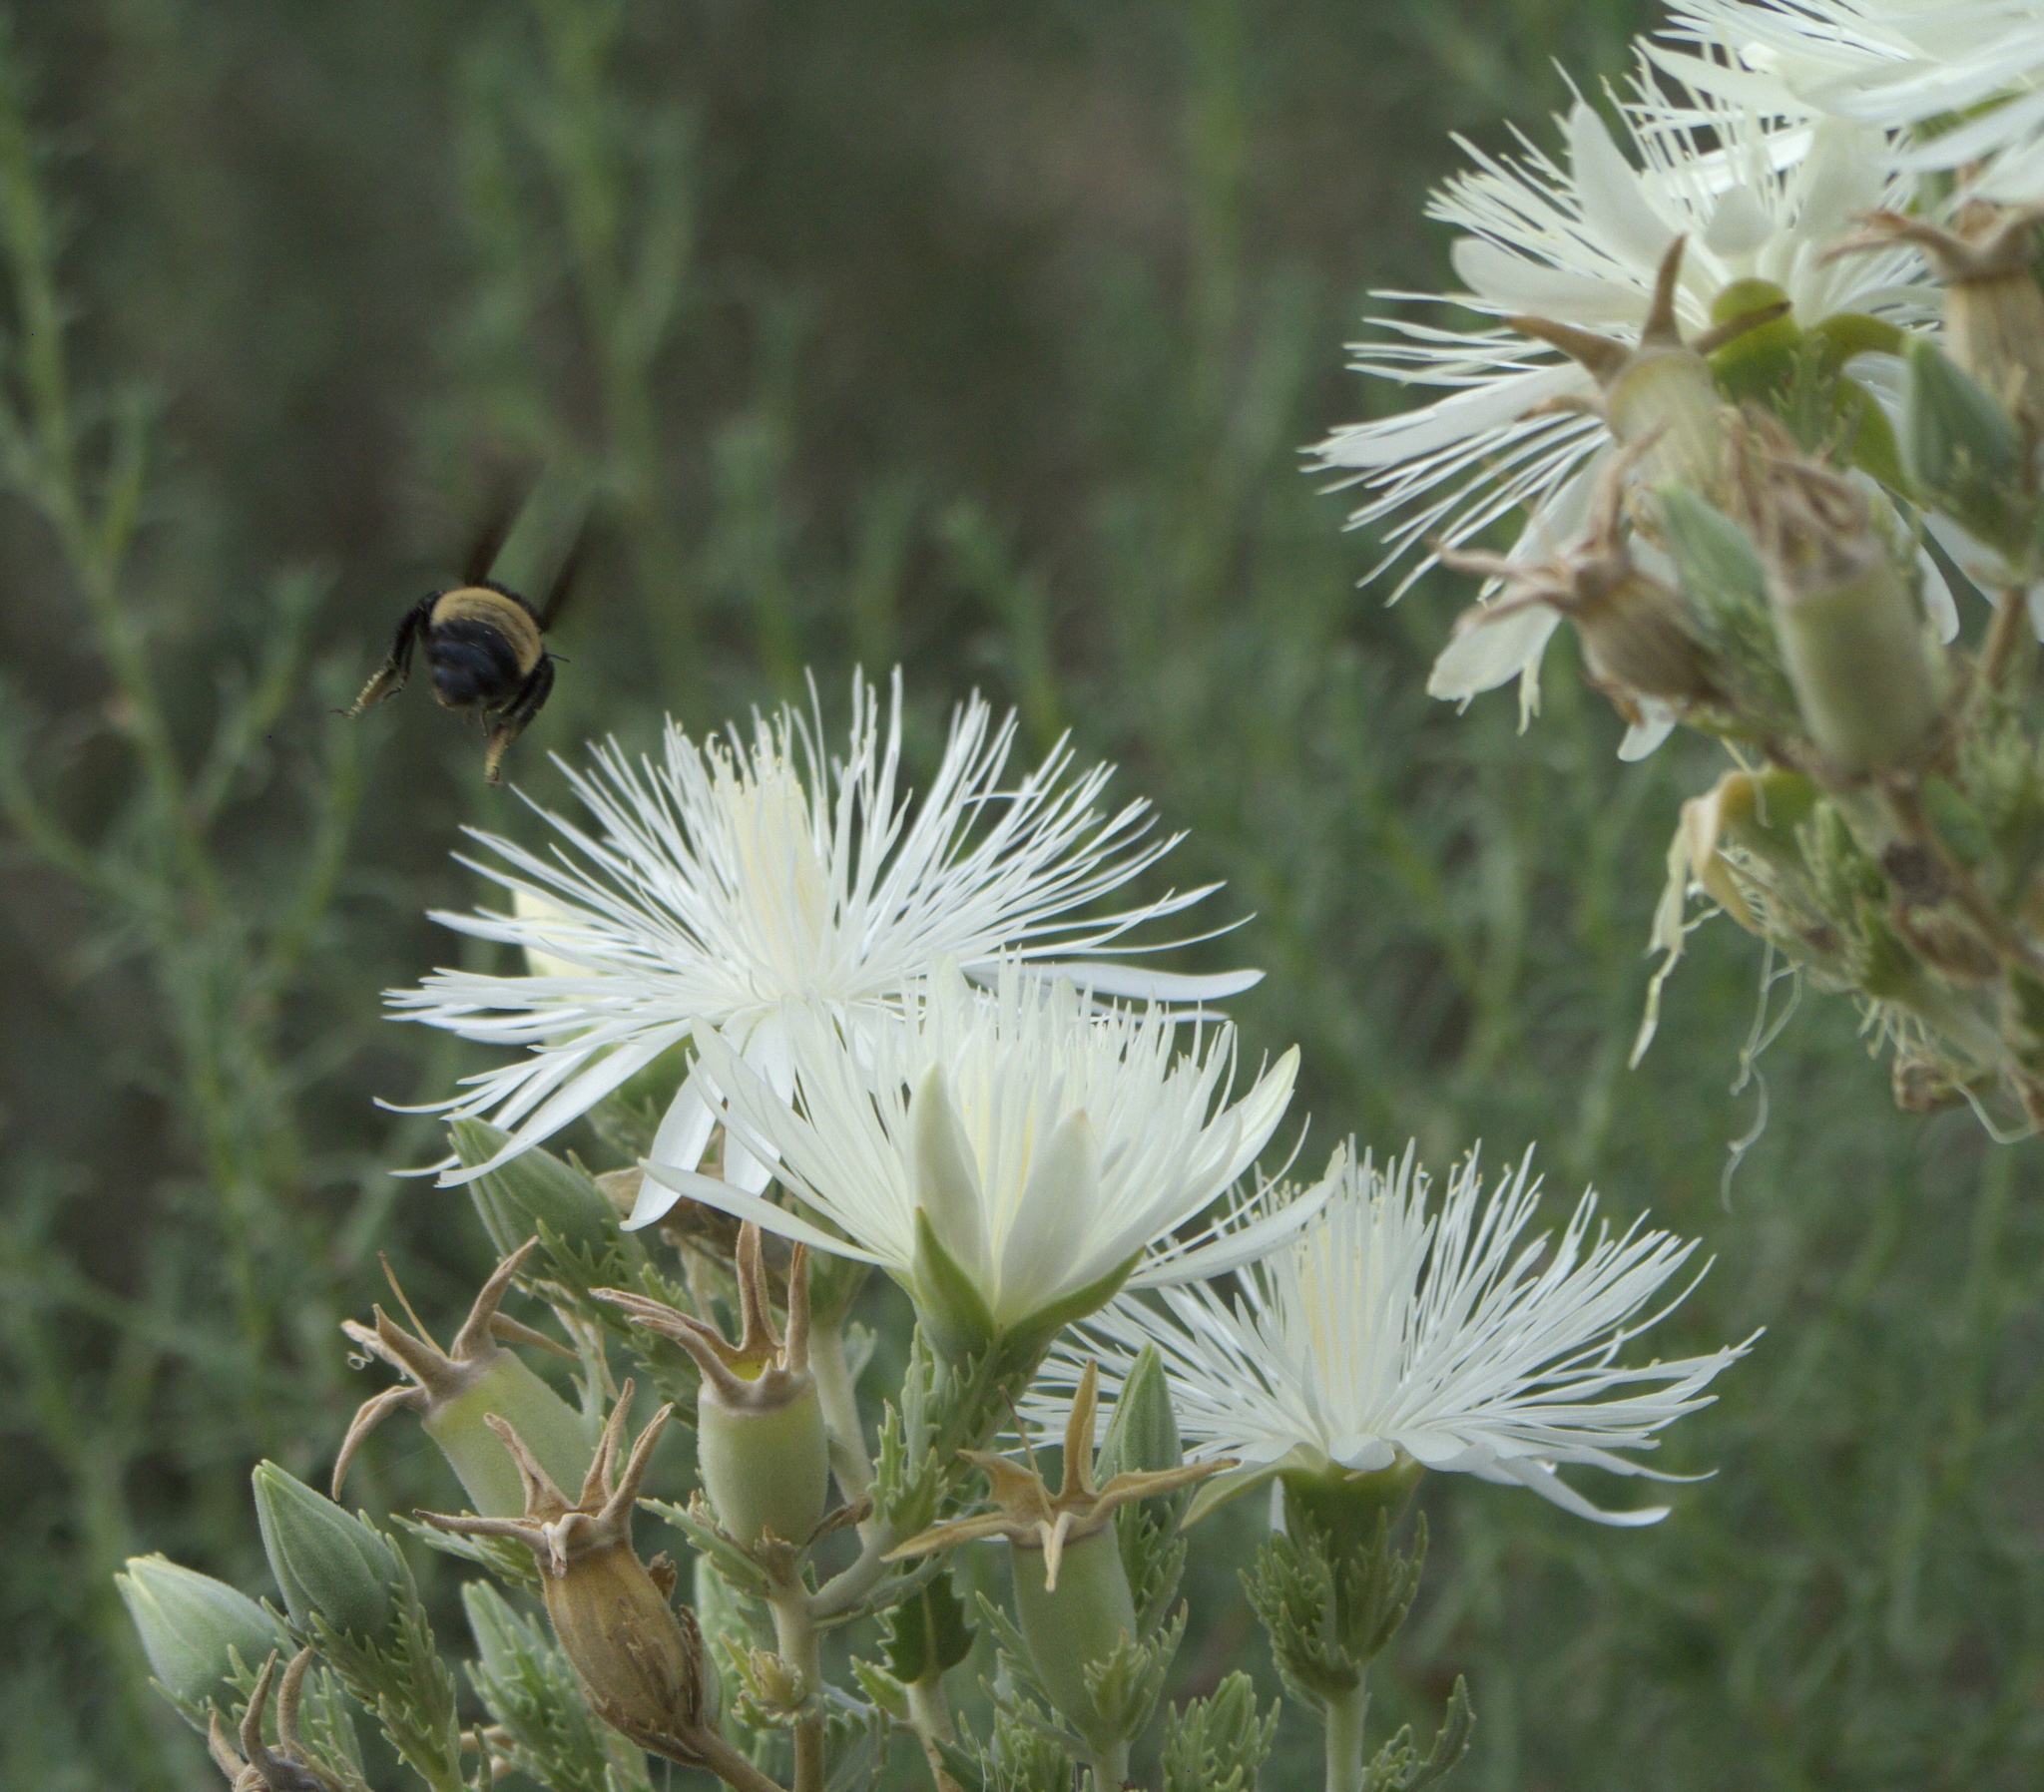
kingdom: Plantae
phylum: Tracheophyta
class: Magnoliopsida
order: Cornales
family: Loasaceae
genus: Mentzelia
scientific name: Mentzelia nuda
